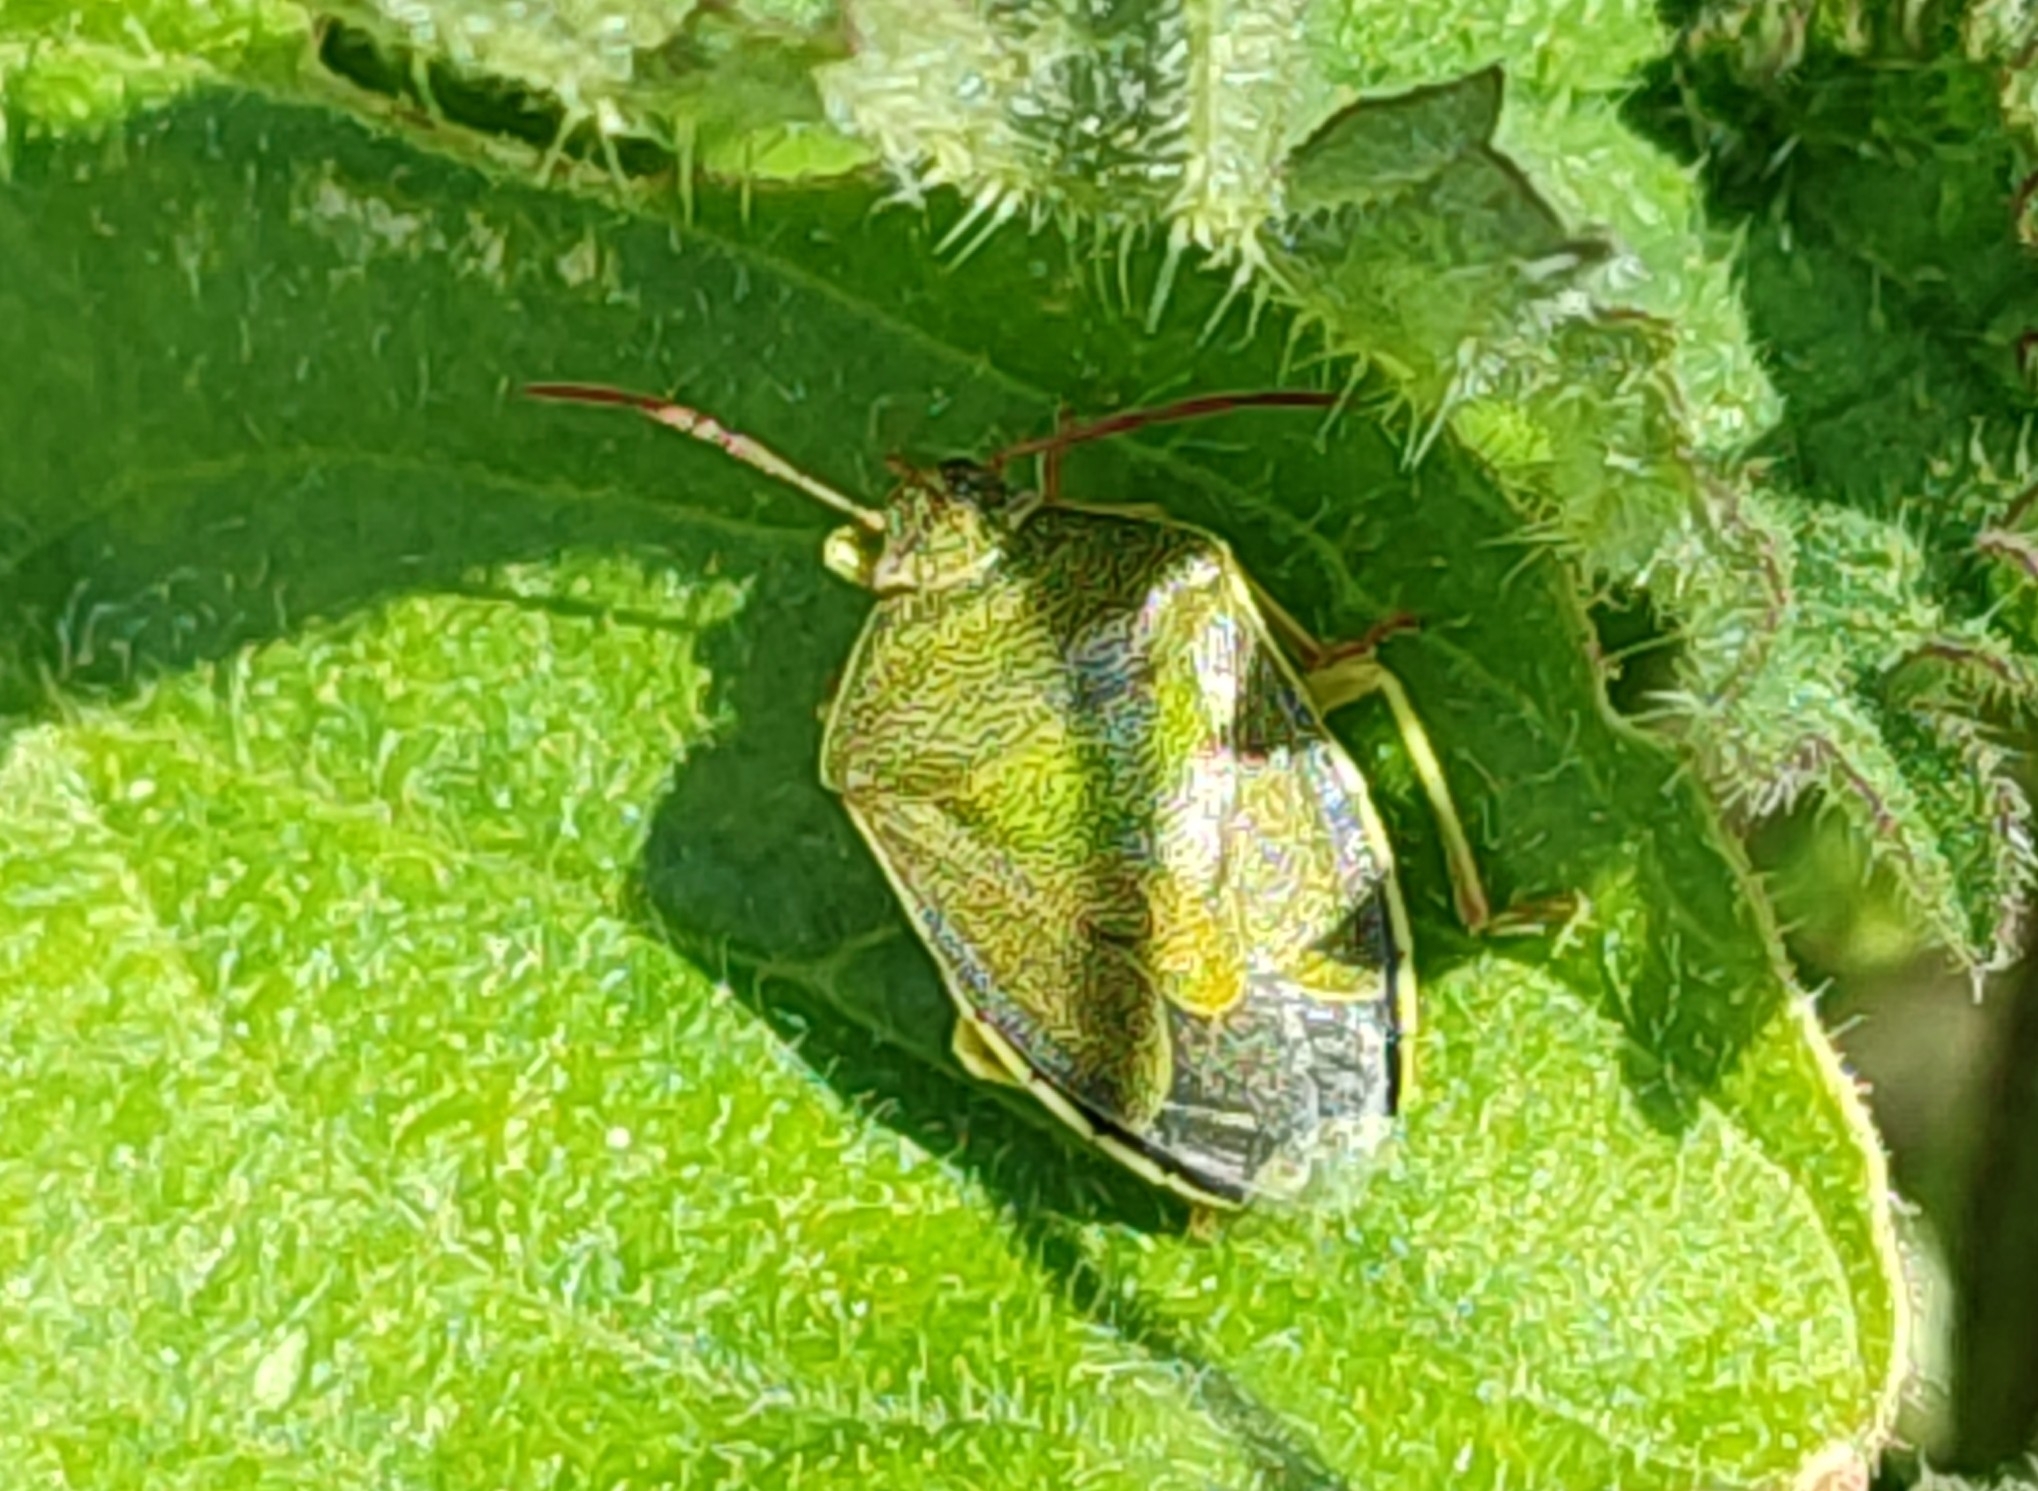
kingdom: Animalia
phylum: Arthropoda
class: Insecta
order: Hemiptera
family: Pentatomidae
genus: Piezodorus
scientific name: Piezodorus lituratus
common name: Stink bug
